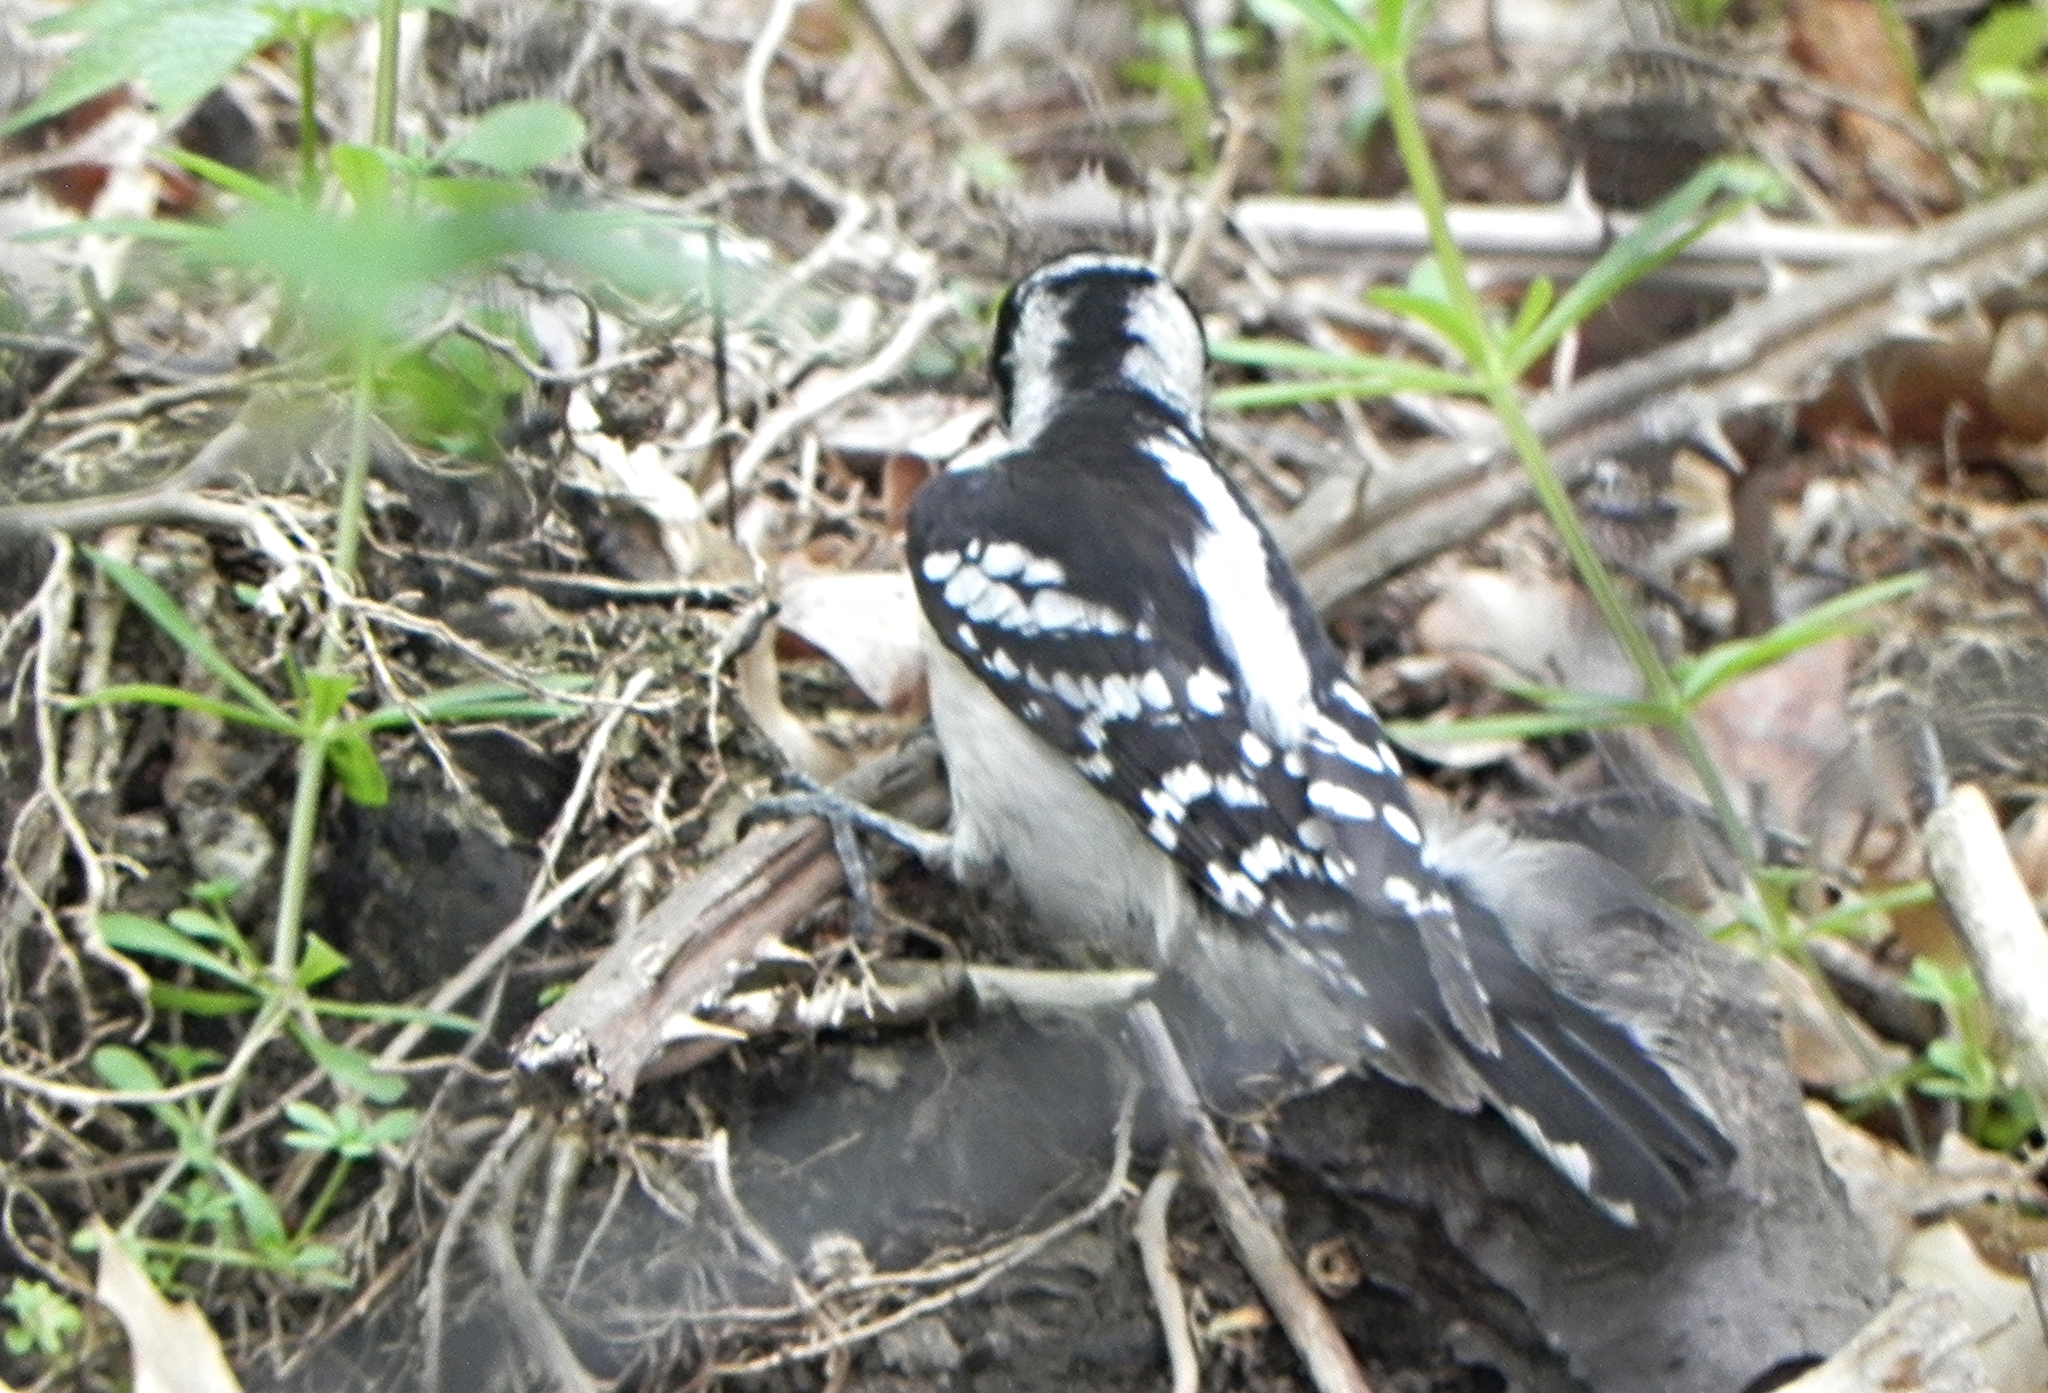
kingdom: Animalia
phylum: Chordata
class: Aves
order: Piciformes
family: Picidae
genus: Dryobates
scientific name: Dryobates pubescens
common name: Downy woodpecker
